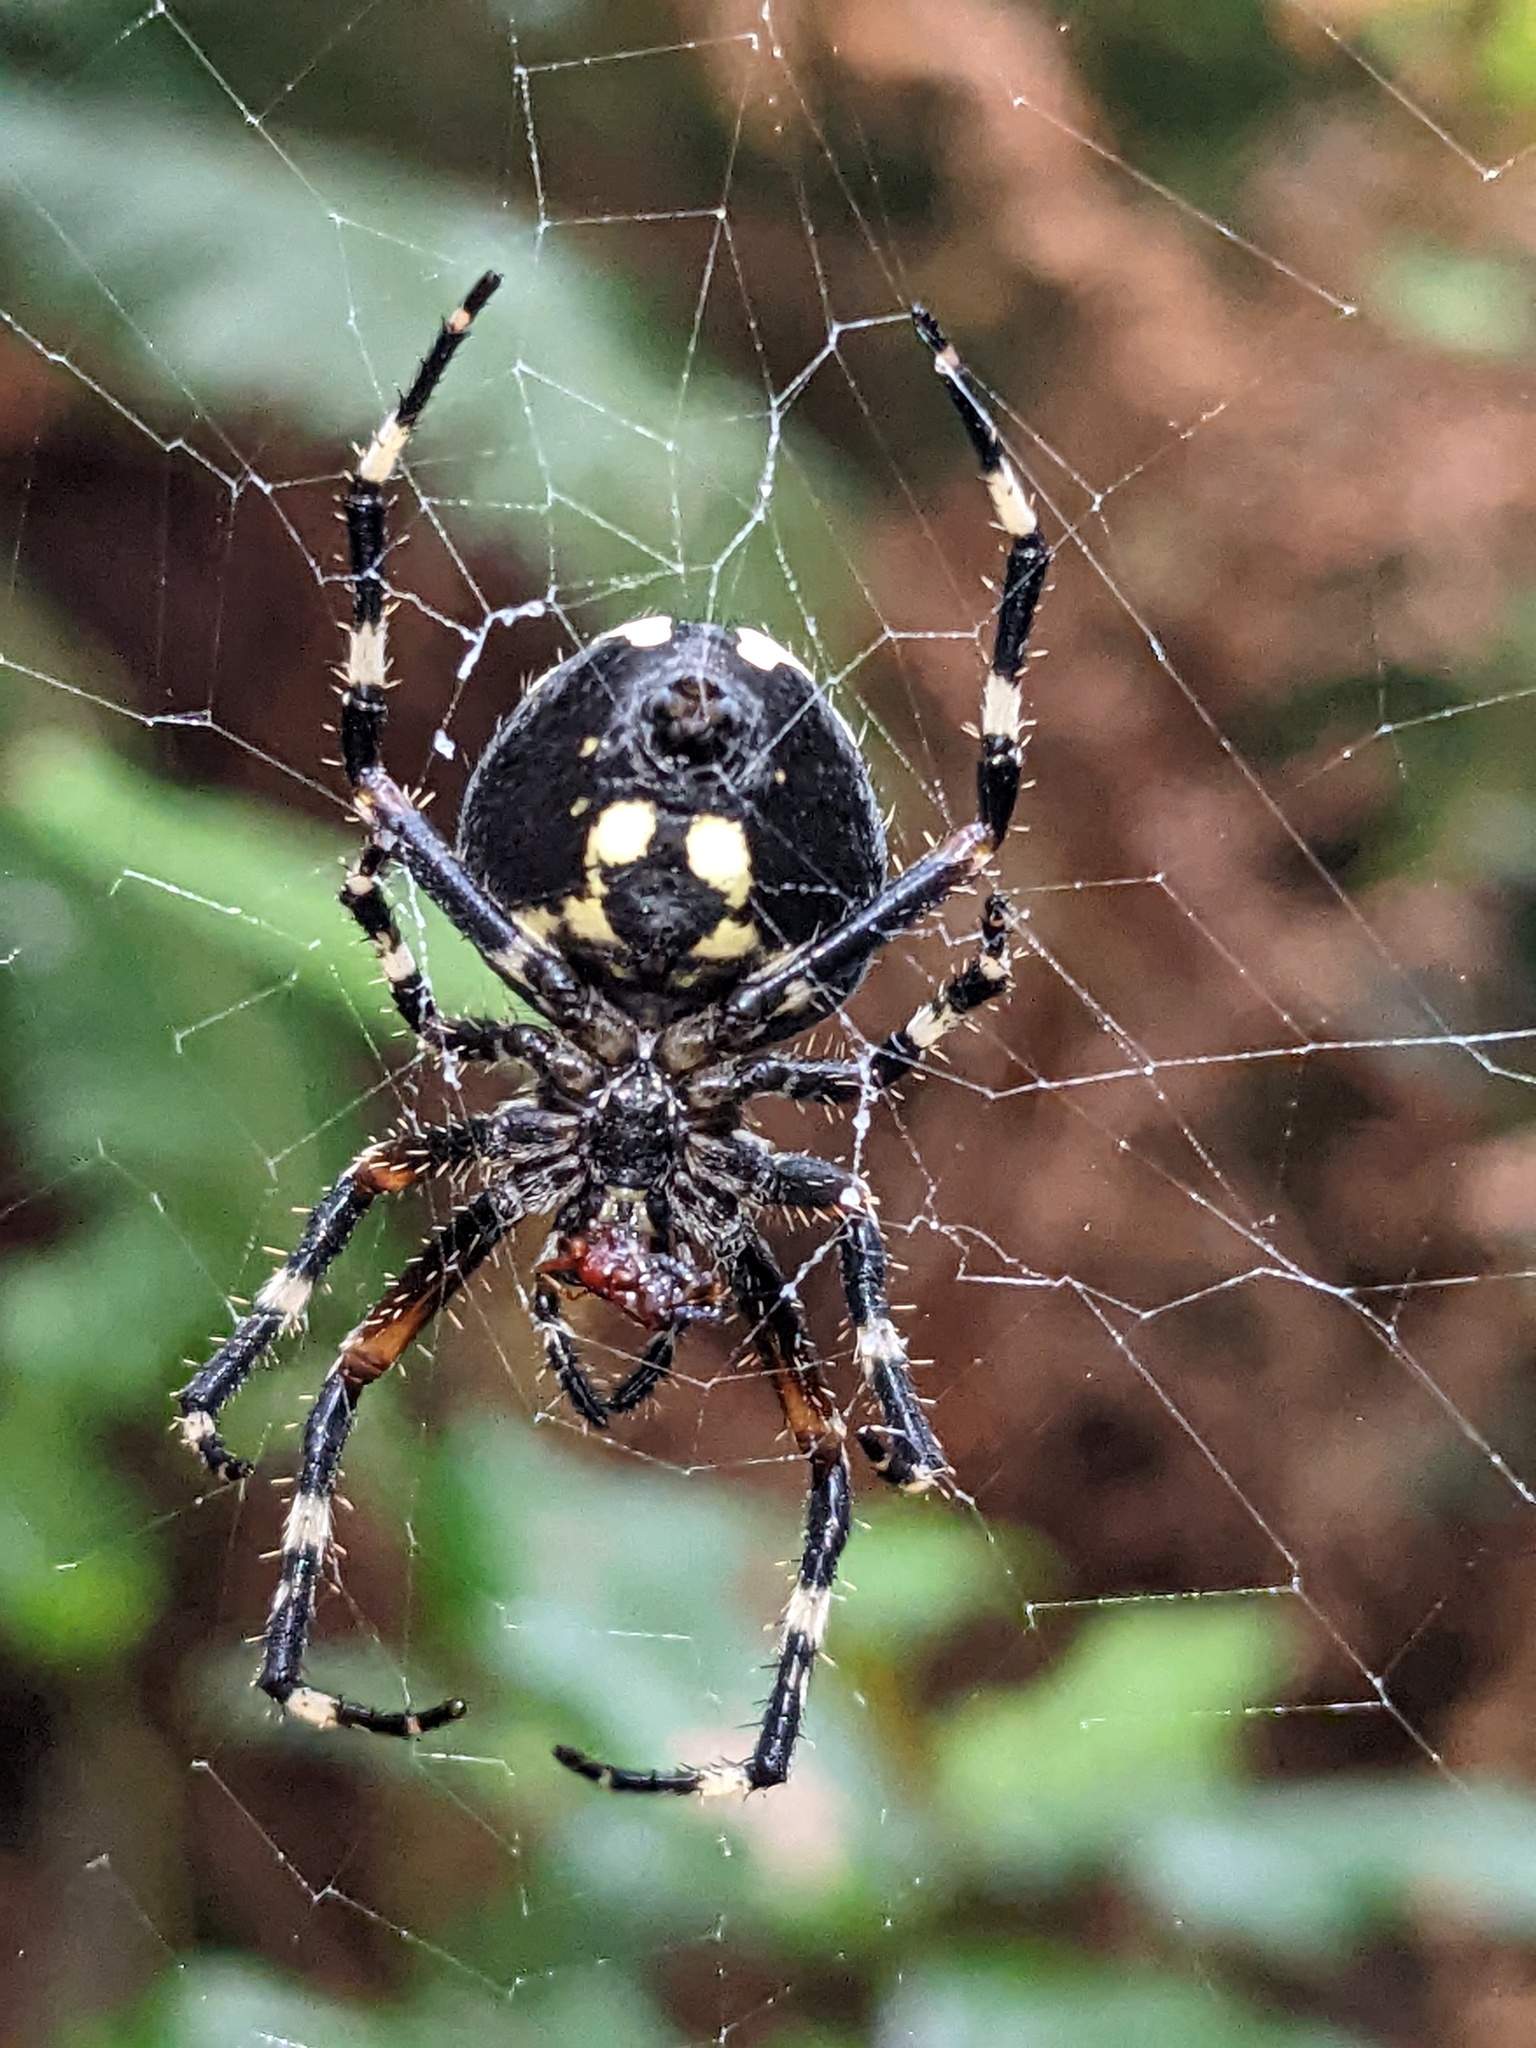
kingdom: Animalia
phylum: Arthropoda
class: Arachnida
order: Araneae
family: Araneidae
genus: Araneus
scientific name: Araneus nordmanni
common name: Nordmann's orbweaver
